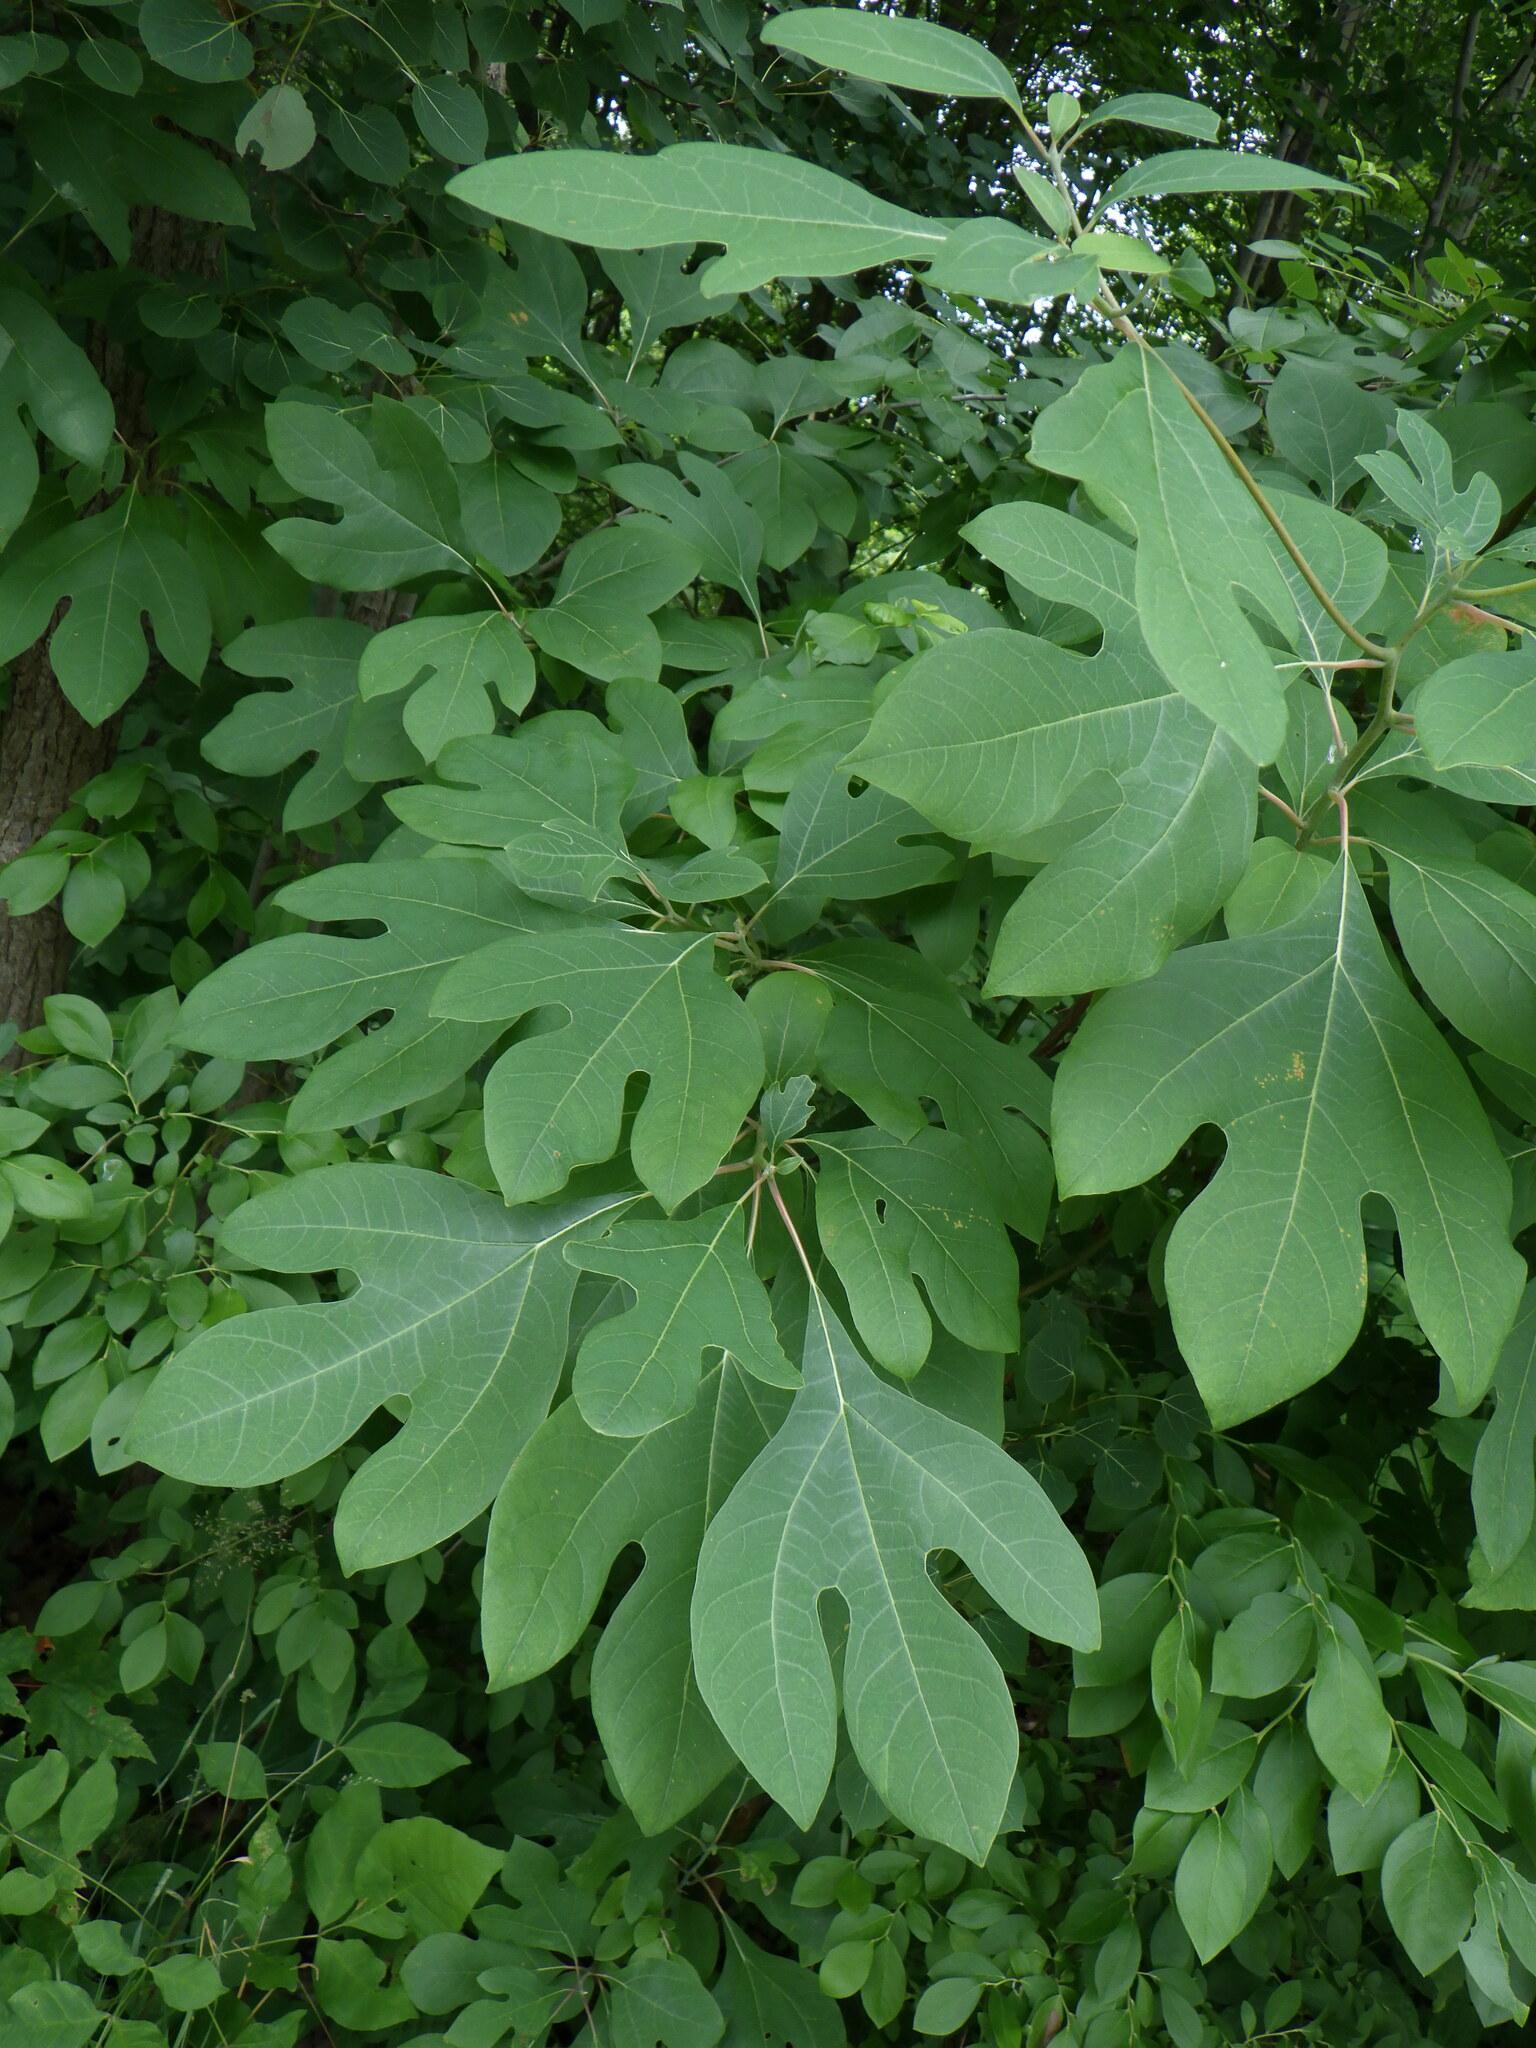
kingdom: Plantae
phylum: Tracheophyta
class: Magnoliopsida
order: Laurales
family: Lauraceae
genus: Sassafras
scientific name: Sassafras albidum
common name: Sassafras
